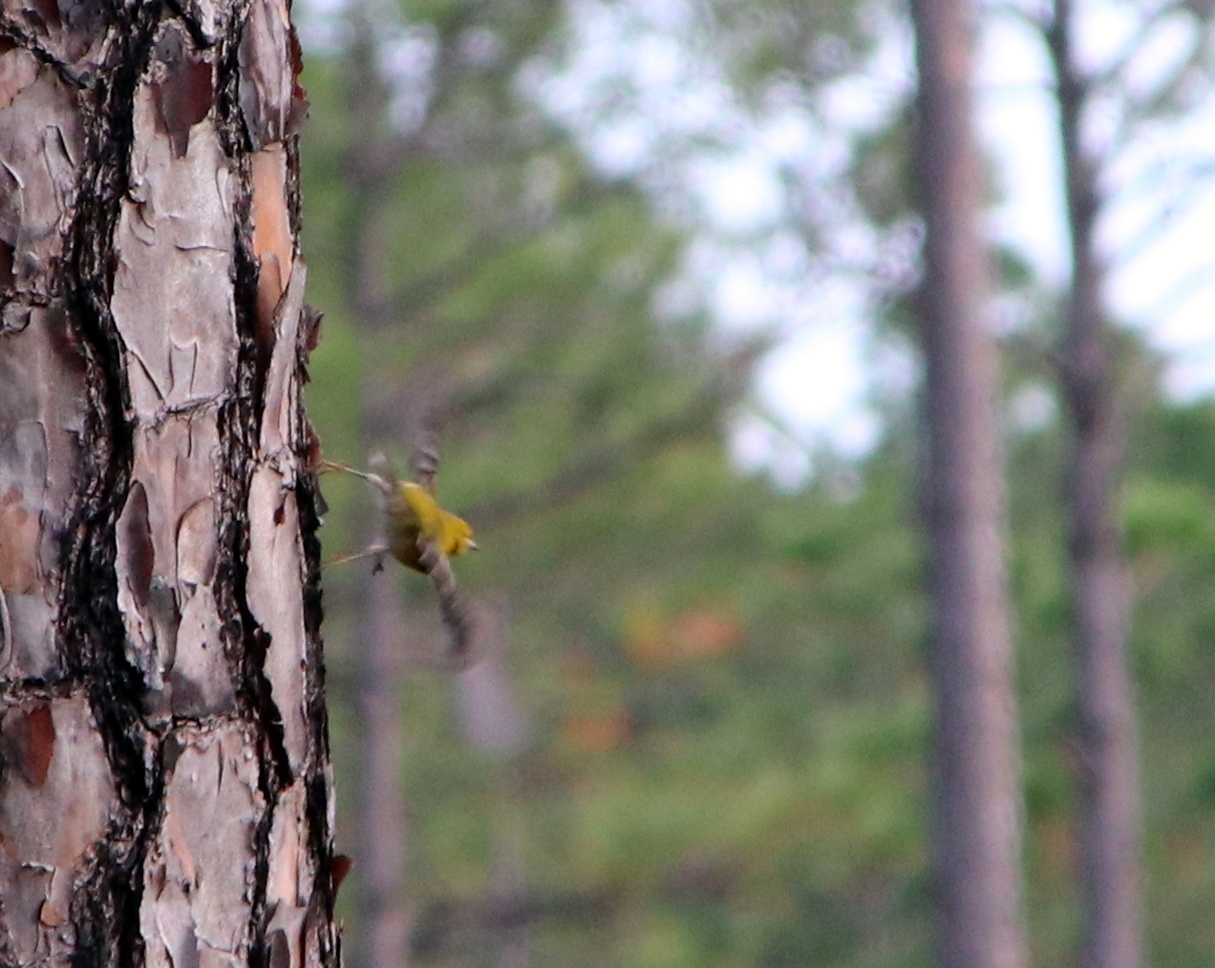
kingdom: Animalia
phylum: Chordata
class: Aves
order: Passeriformes
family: Parulidae
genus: Setophaga
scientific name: Setophaga pinus
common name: Pine warbler
